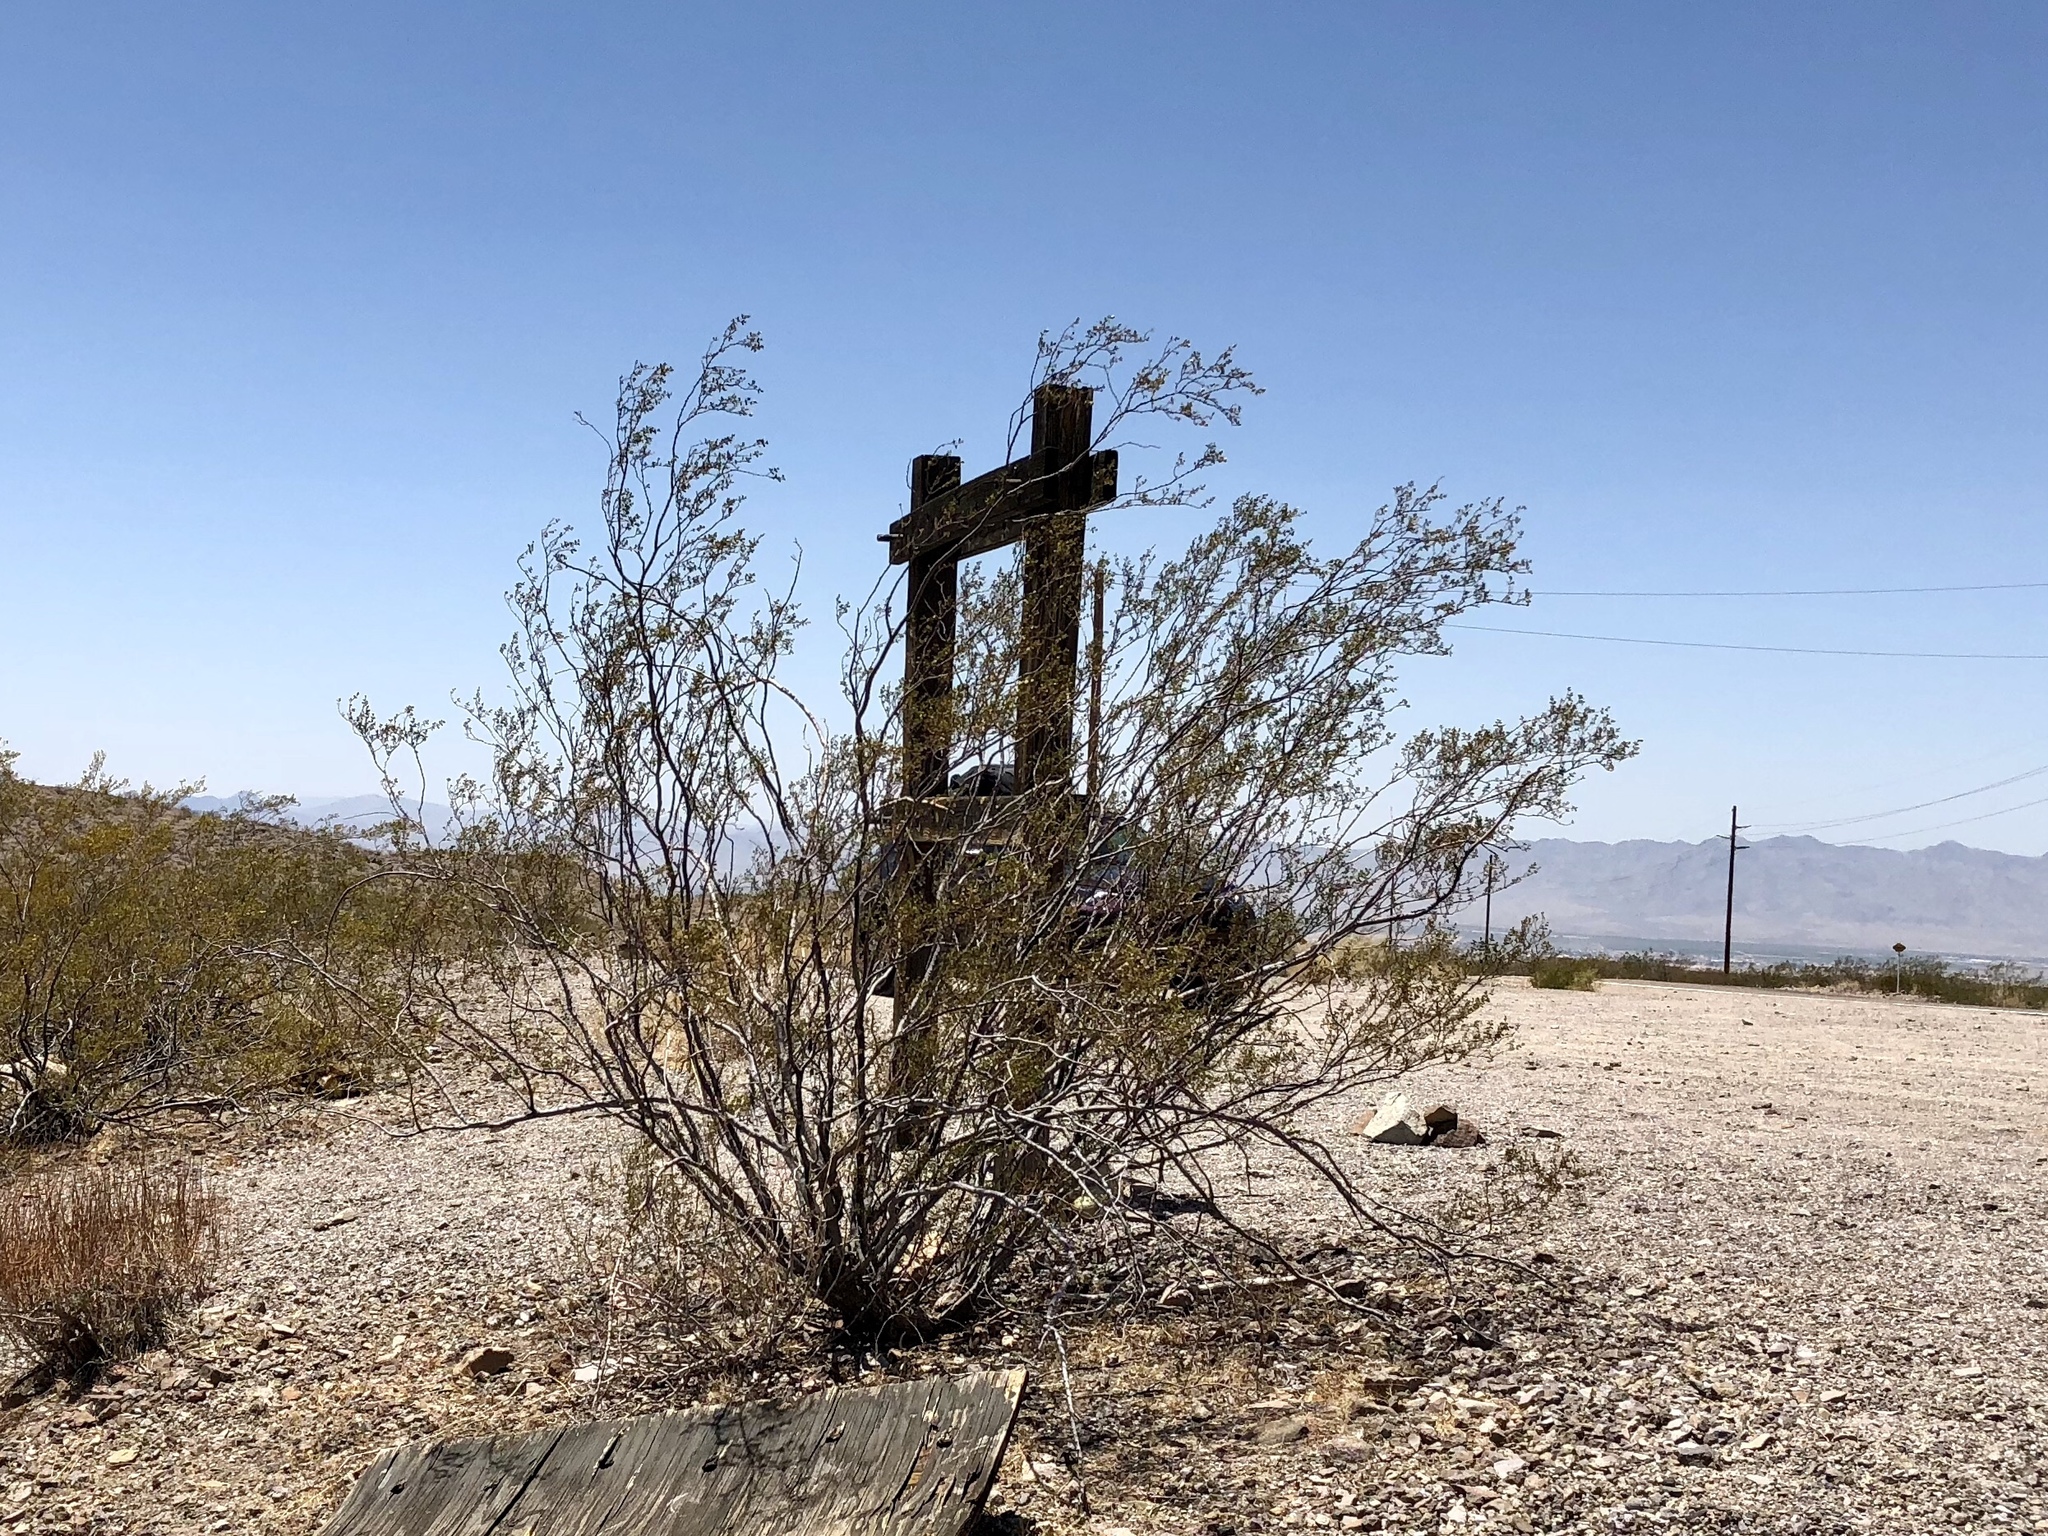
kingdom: Plantae
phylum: Tracheophyta
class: Magnoliopsida
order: Zygophyllales
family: Zygophyllaceae
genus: Larrea
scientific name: Larrea tridentata
